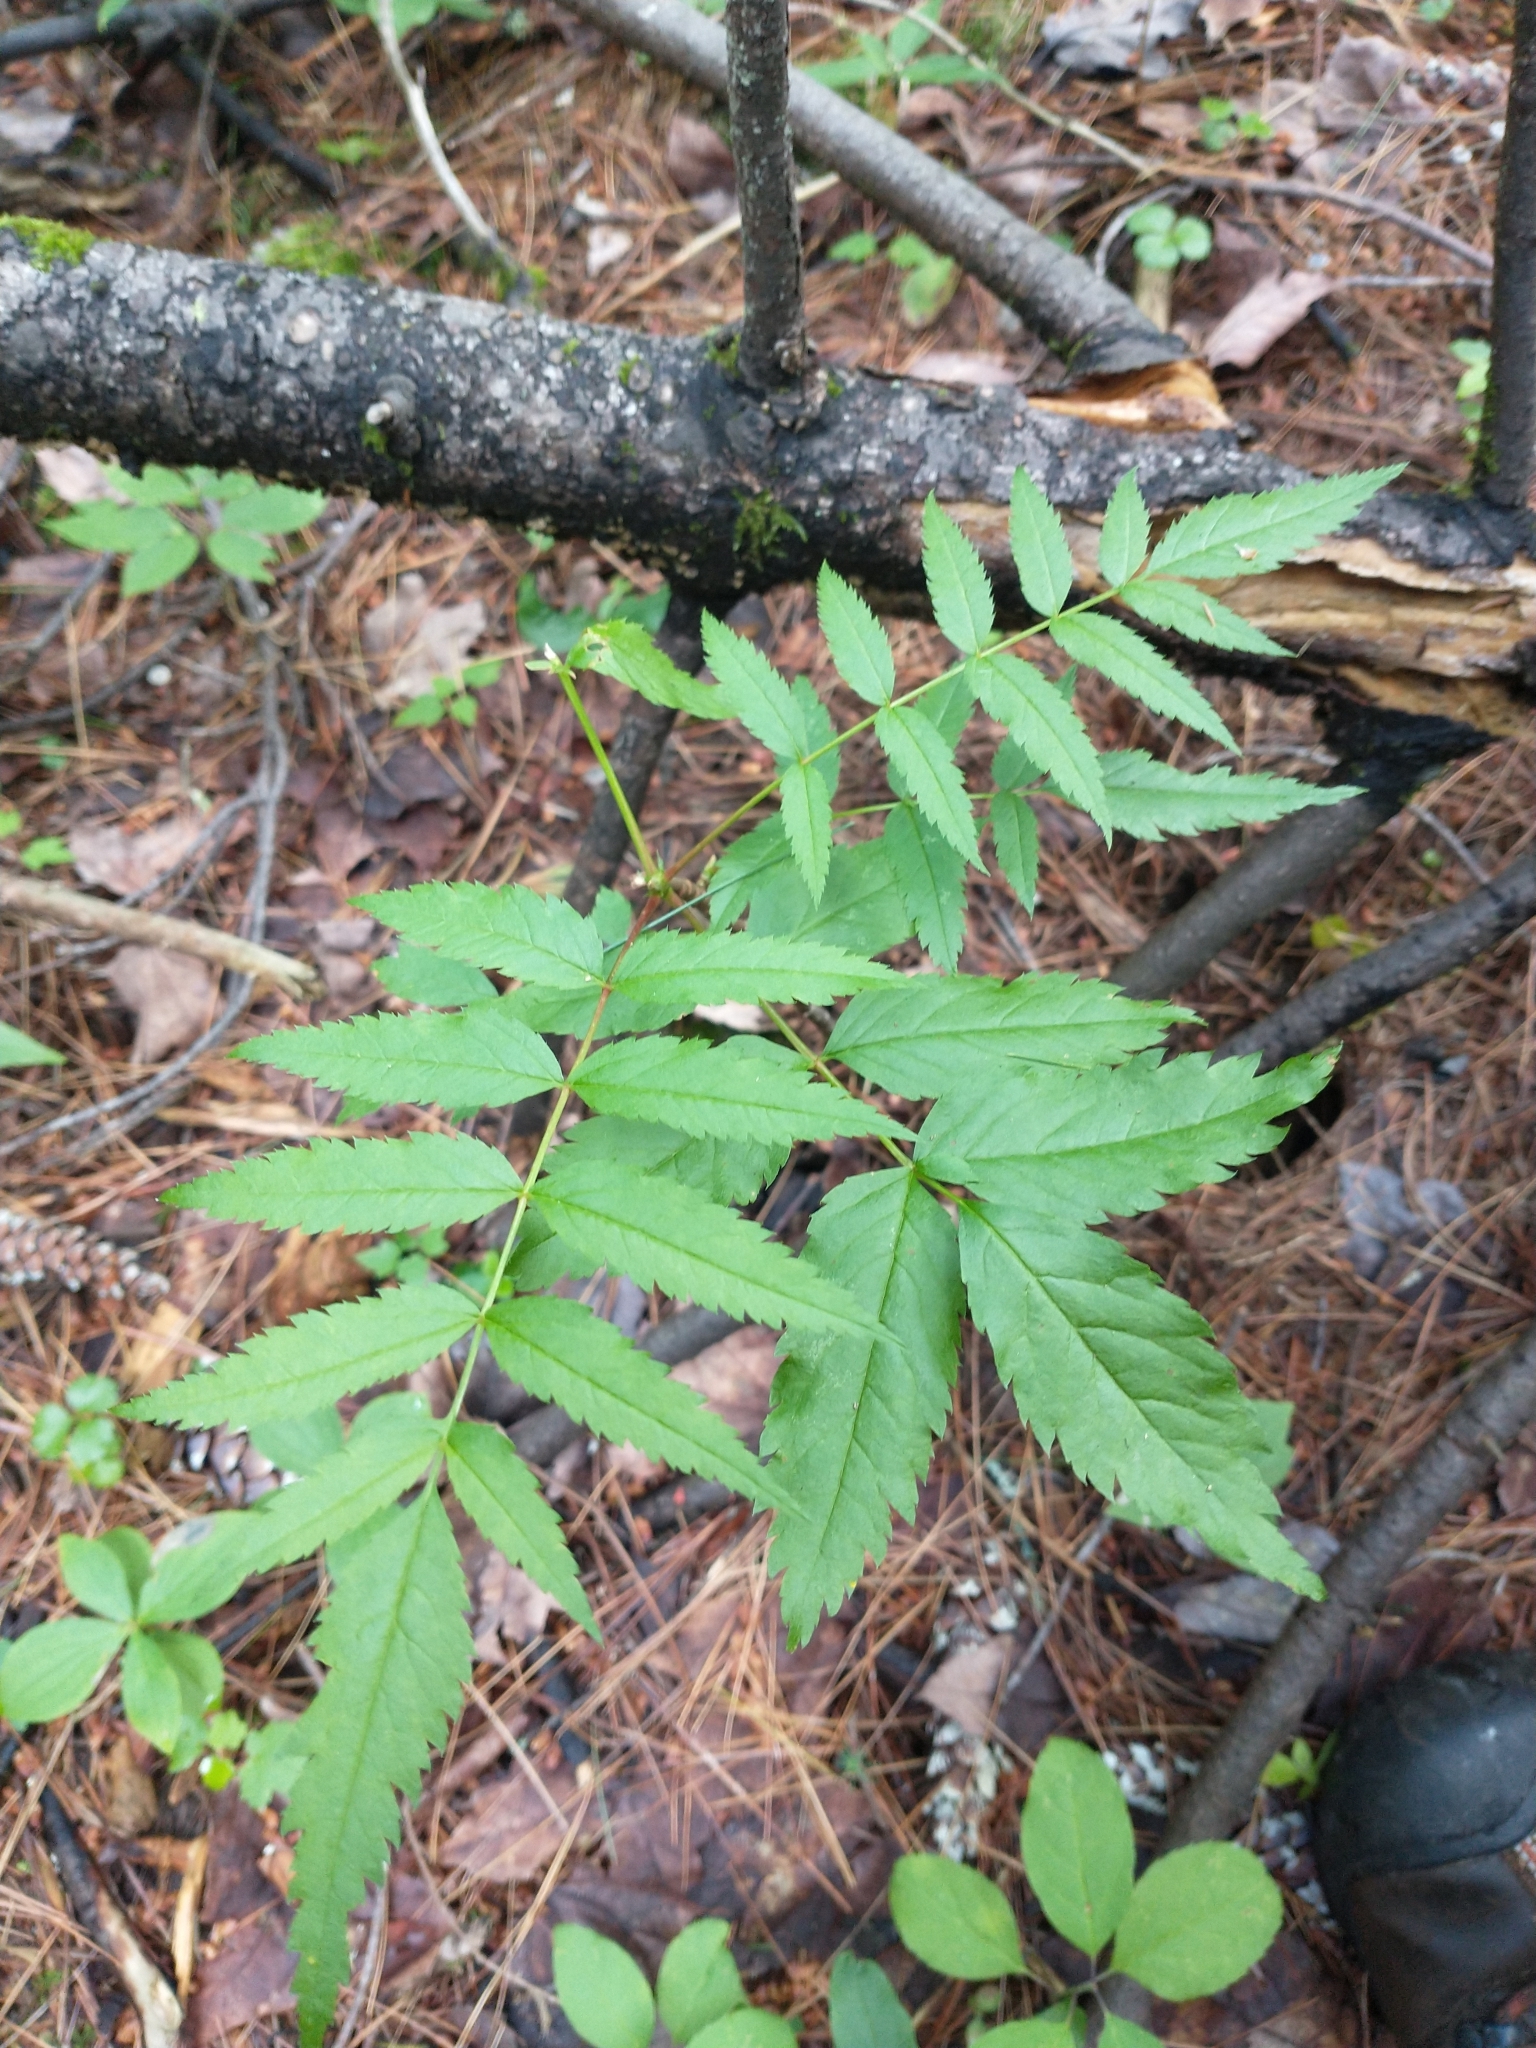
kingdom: Plantae
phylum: Tracheophyta
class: Magnoliopsida
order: Rosales
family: Rosaceae
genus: Sorbus
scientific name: Sorbus americana
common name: American mountain-ash
